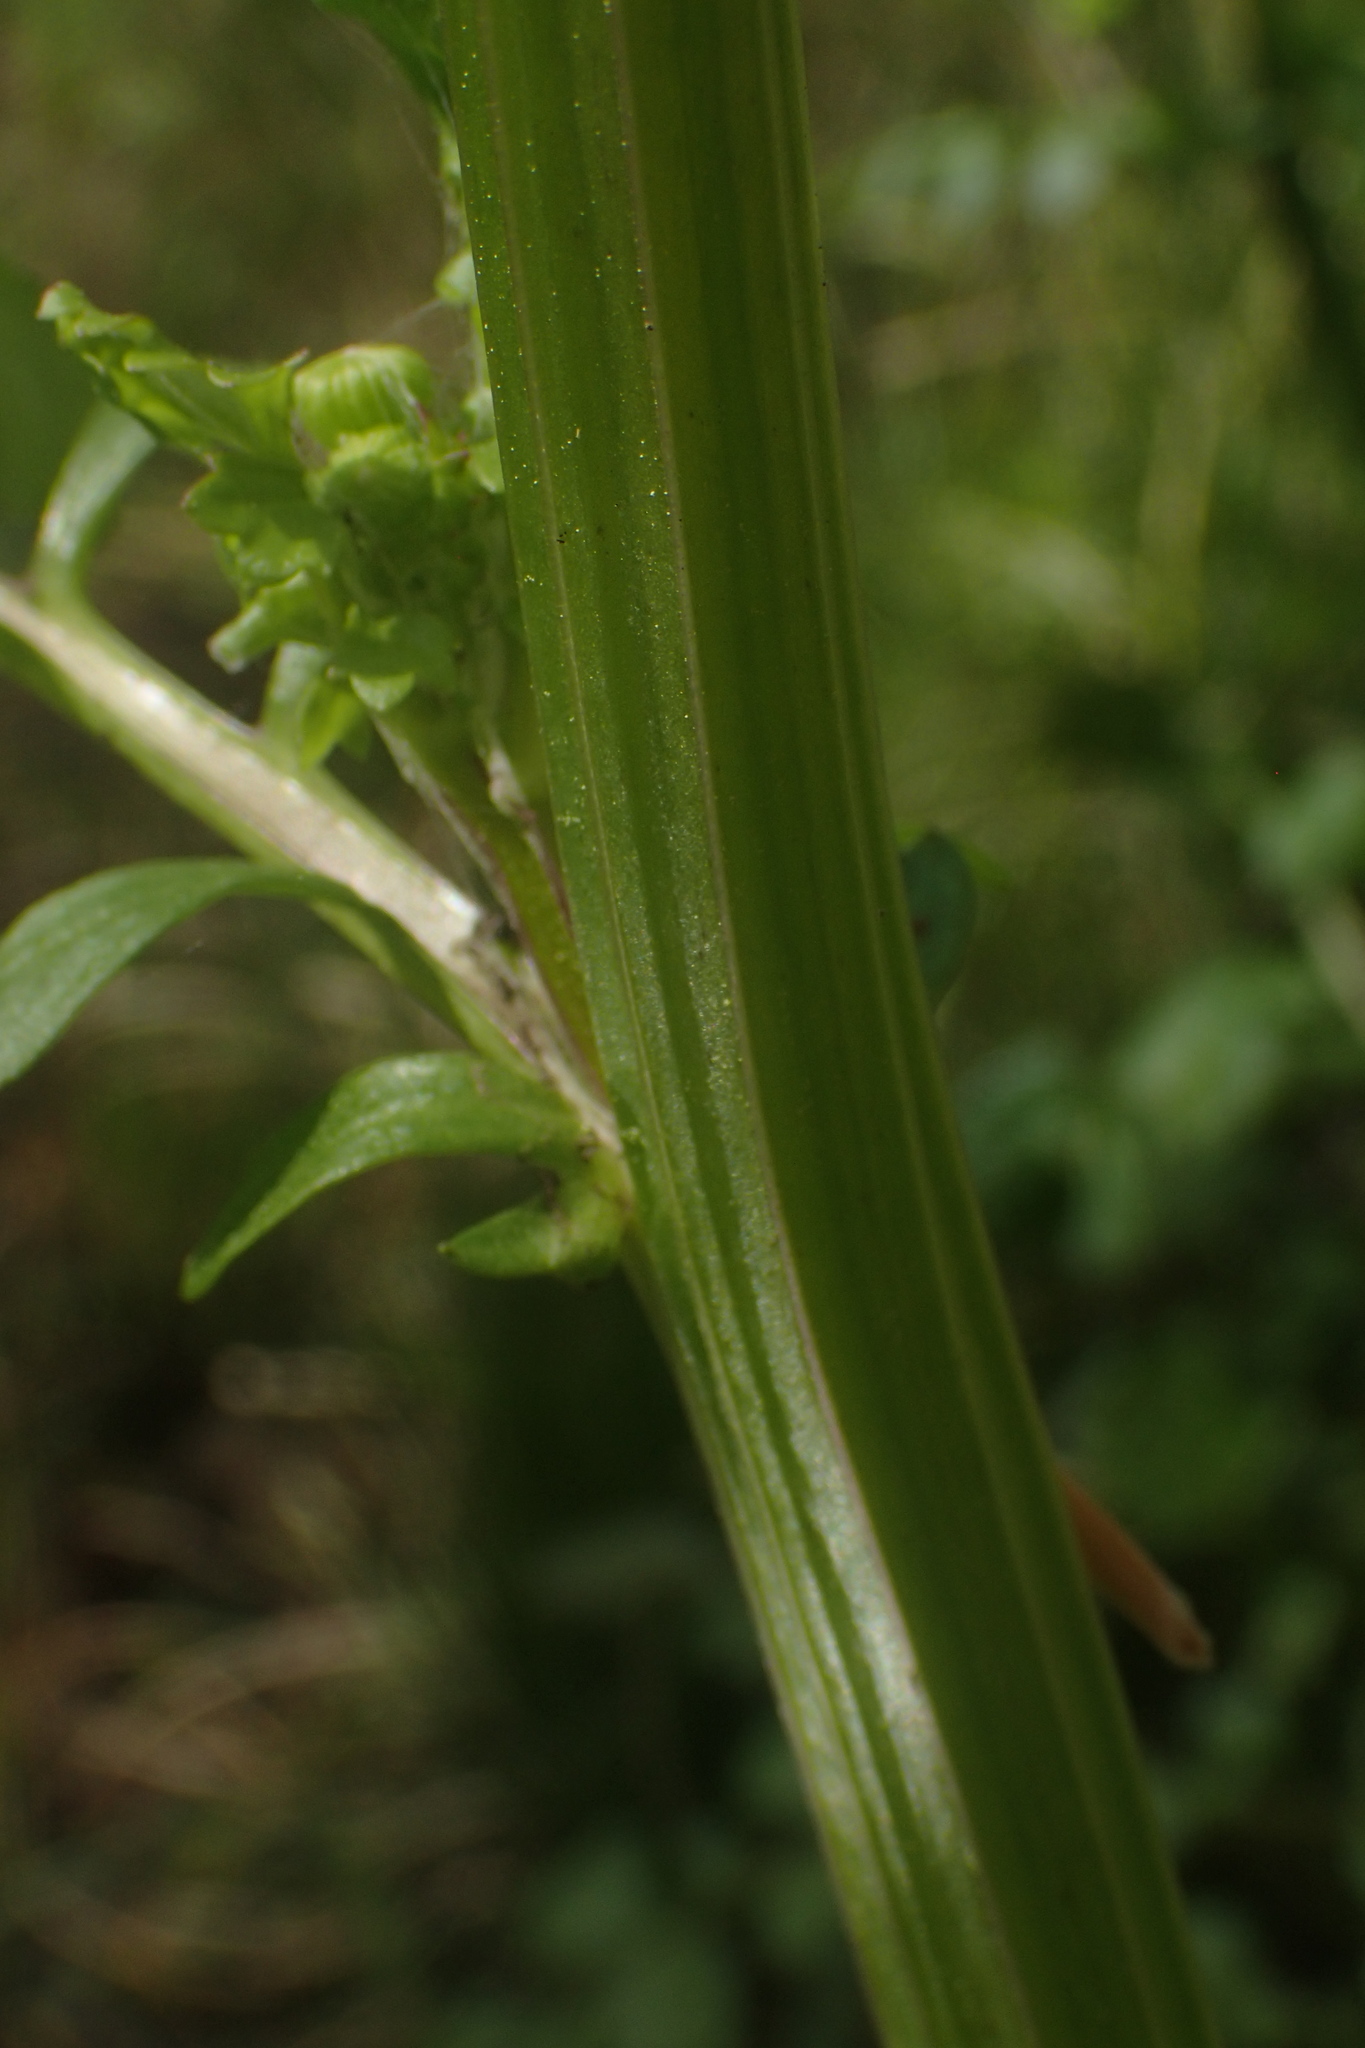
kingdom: Plantae
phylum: Tracheophyta
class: Magnoliopsida
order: Asterales
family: Asteraceae
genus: Packera
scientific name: Packera glabella
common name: Butterweed
